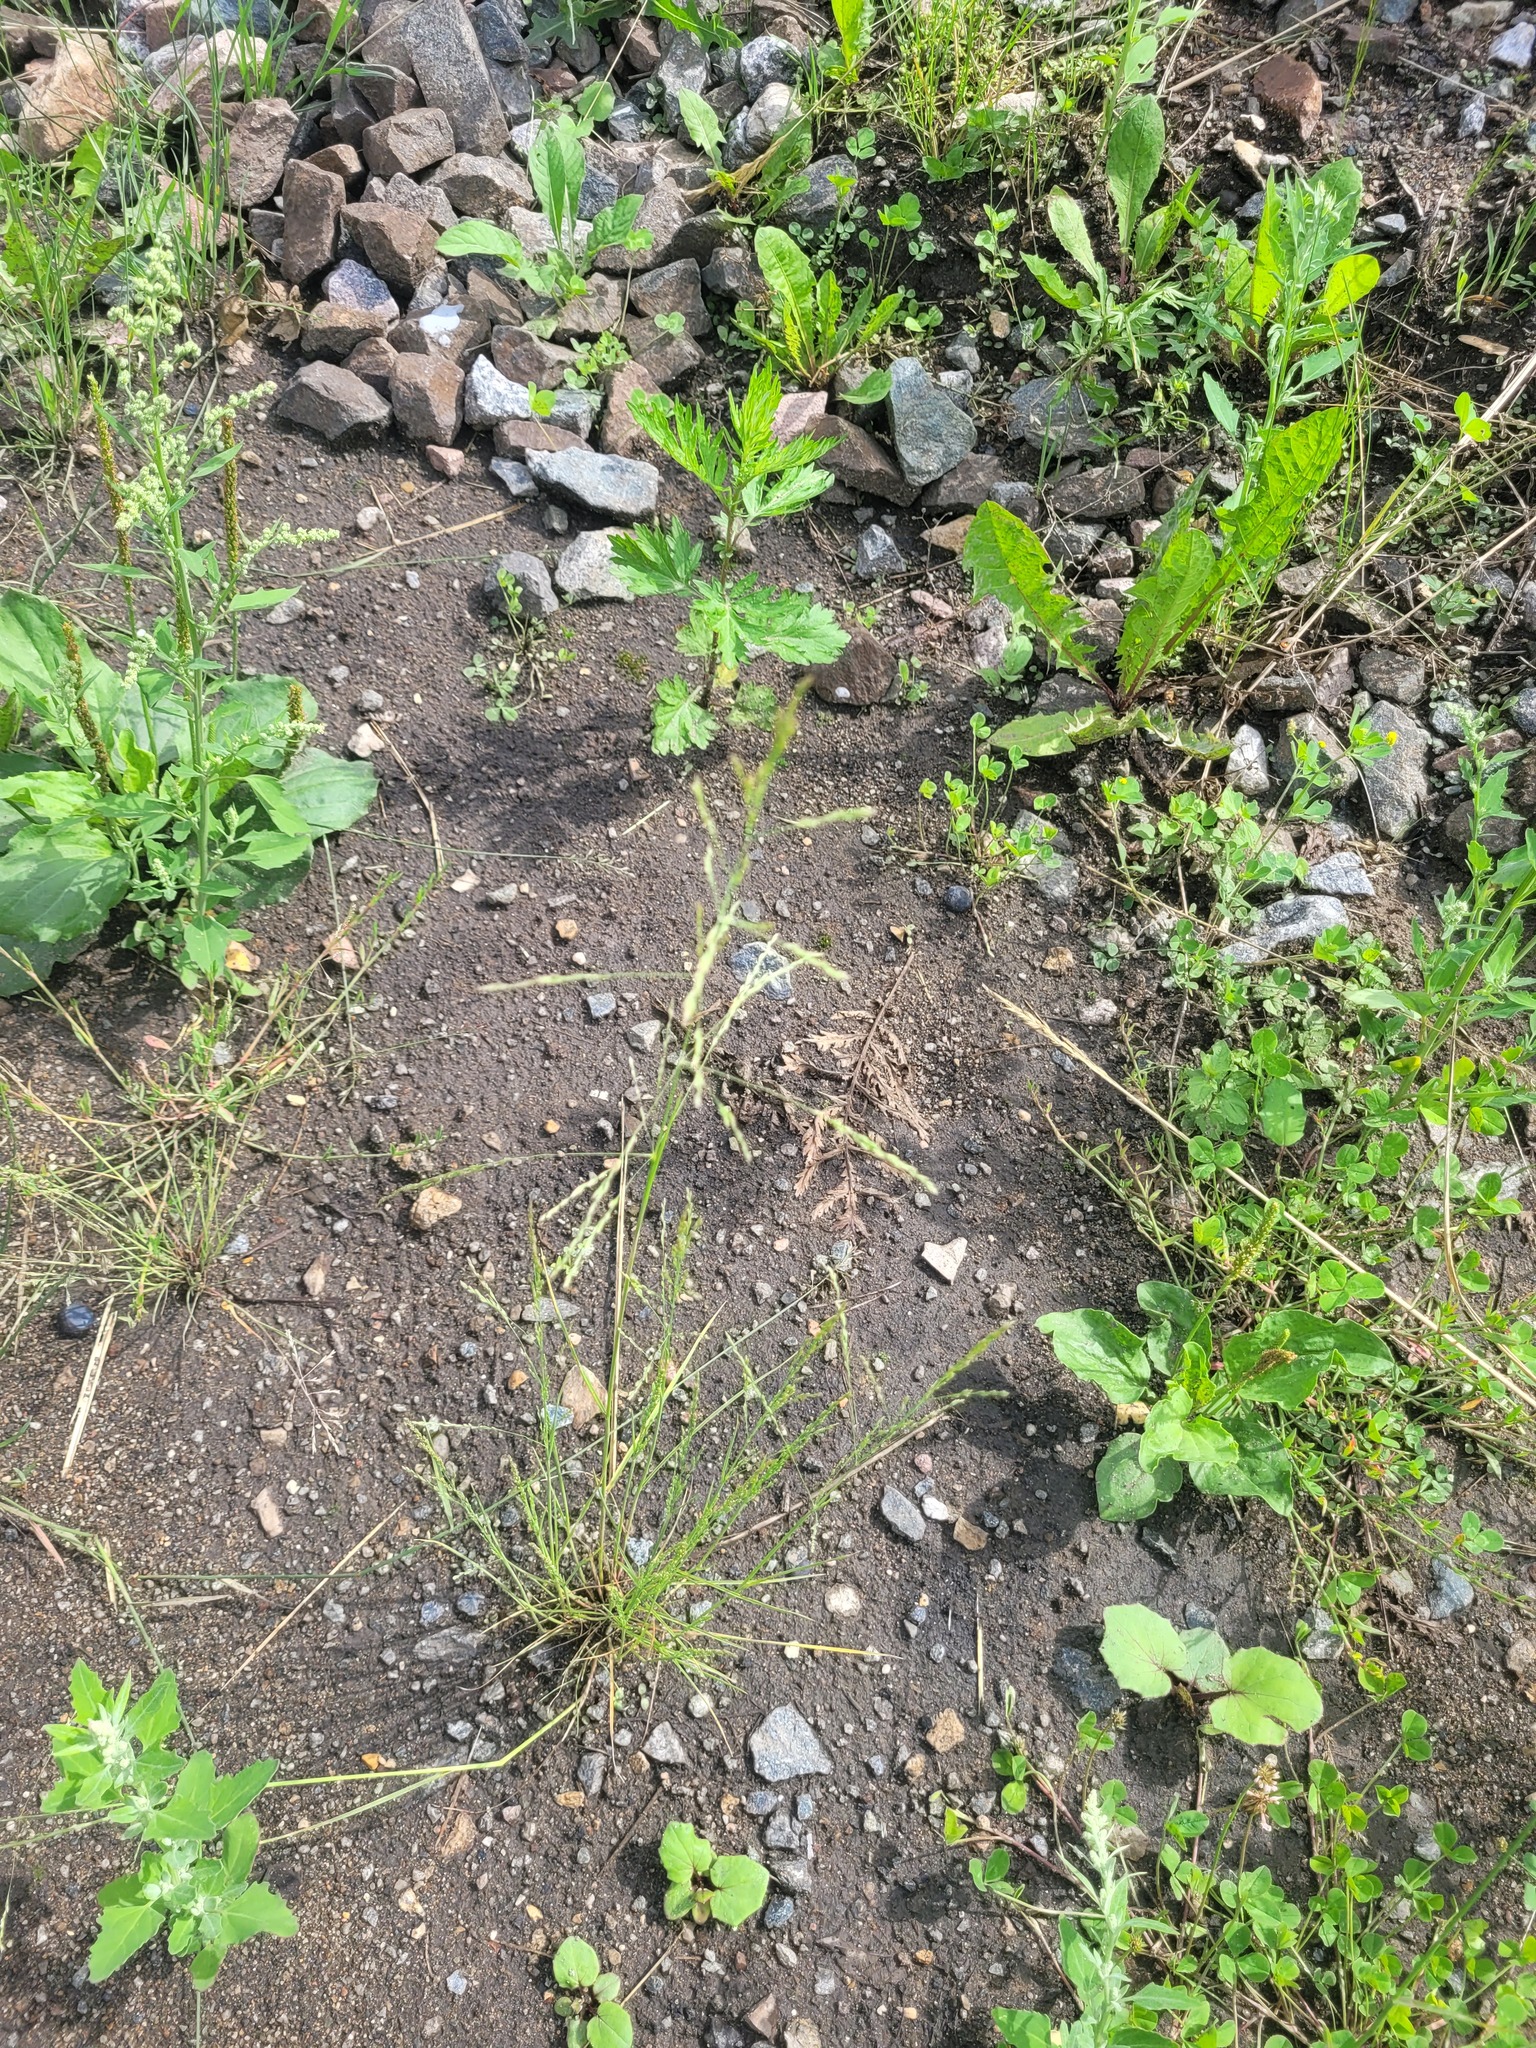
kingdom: Plantae
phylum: Tracheophyta
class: Liliopsida
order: Poales
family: Poaceae
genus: Puccinellia
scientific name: Puccinellia distans
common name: Weeping alkaligrass
